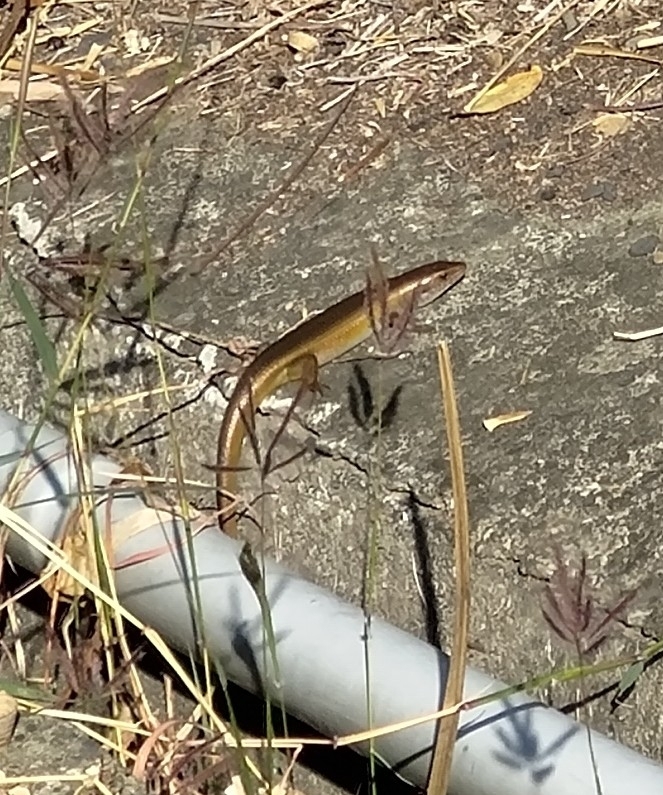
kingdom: Animalia
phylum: Chordata
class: Squamata
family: Scincidae
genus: Eutropis
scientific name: Eutropis multifasciata
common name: Common mabuya
